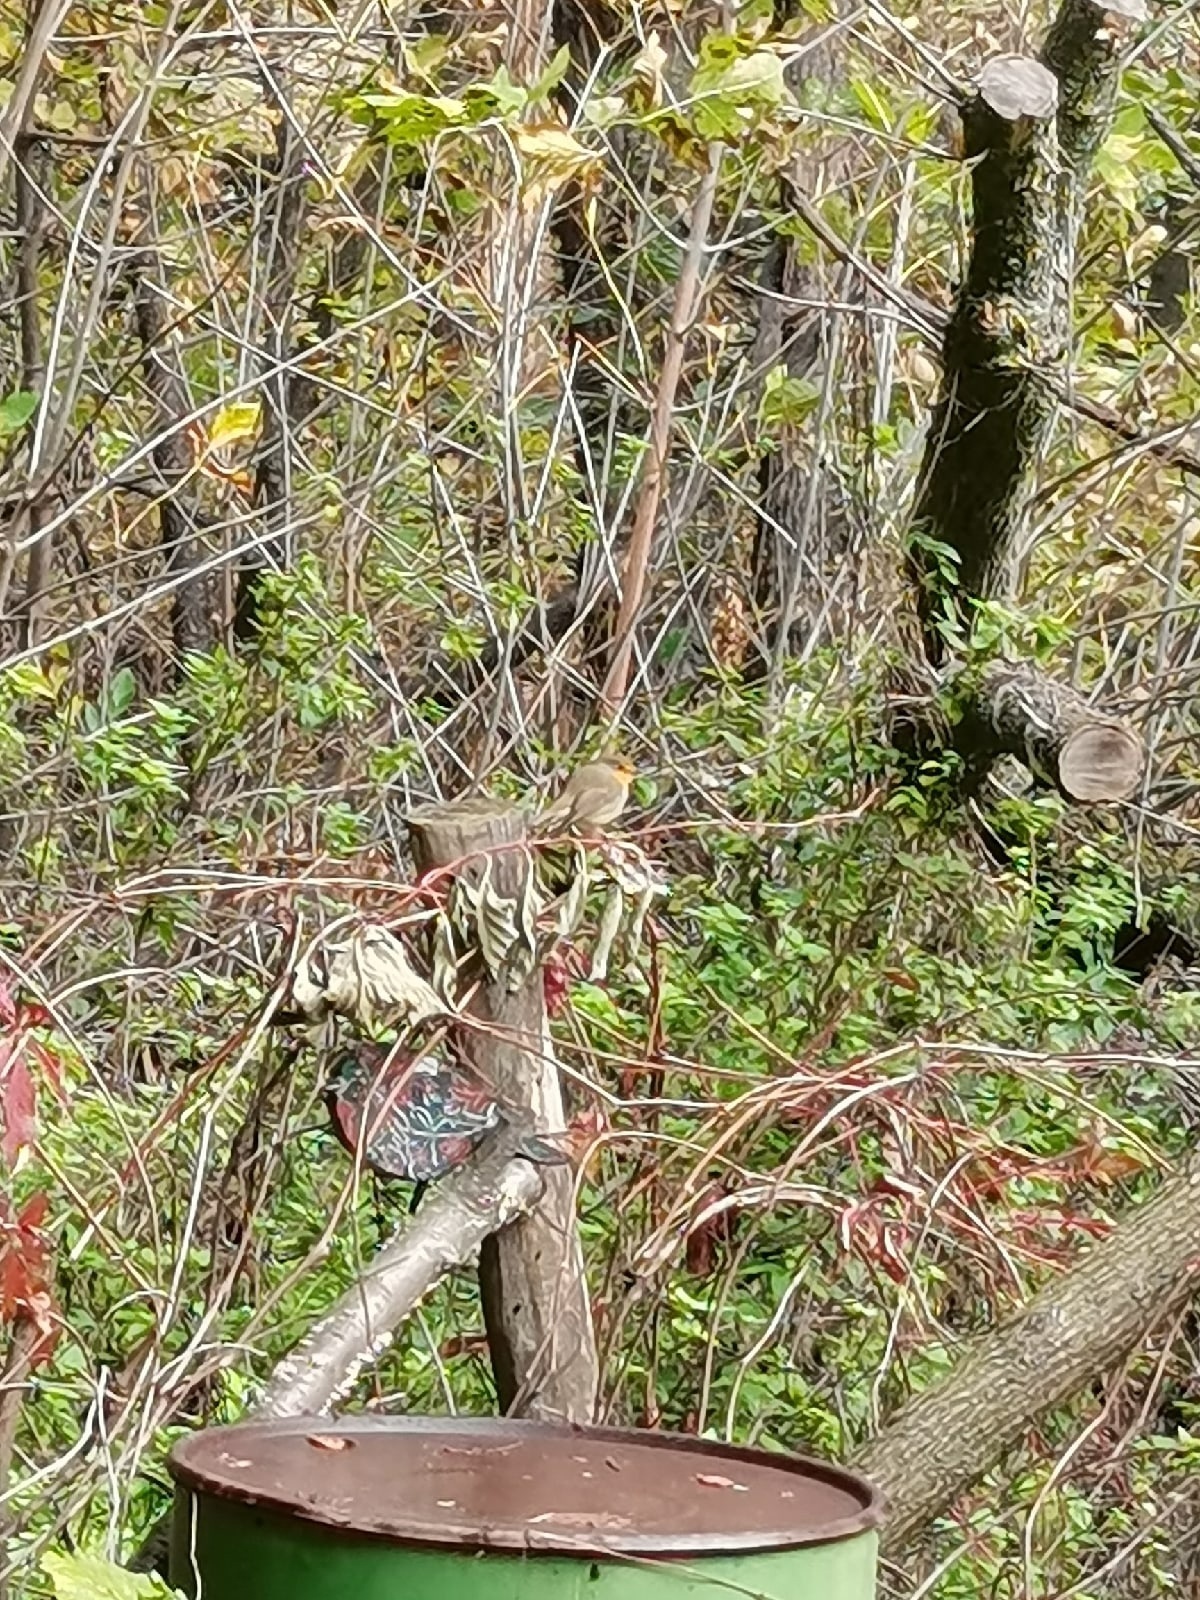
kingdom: Animalia
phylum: Chordata
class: Aves
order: Passeriformes
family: Muscicapidae
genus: Erithacus
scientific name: Erithacus rubecula
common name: European robin
